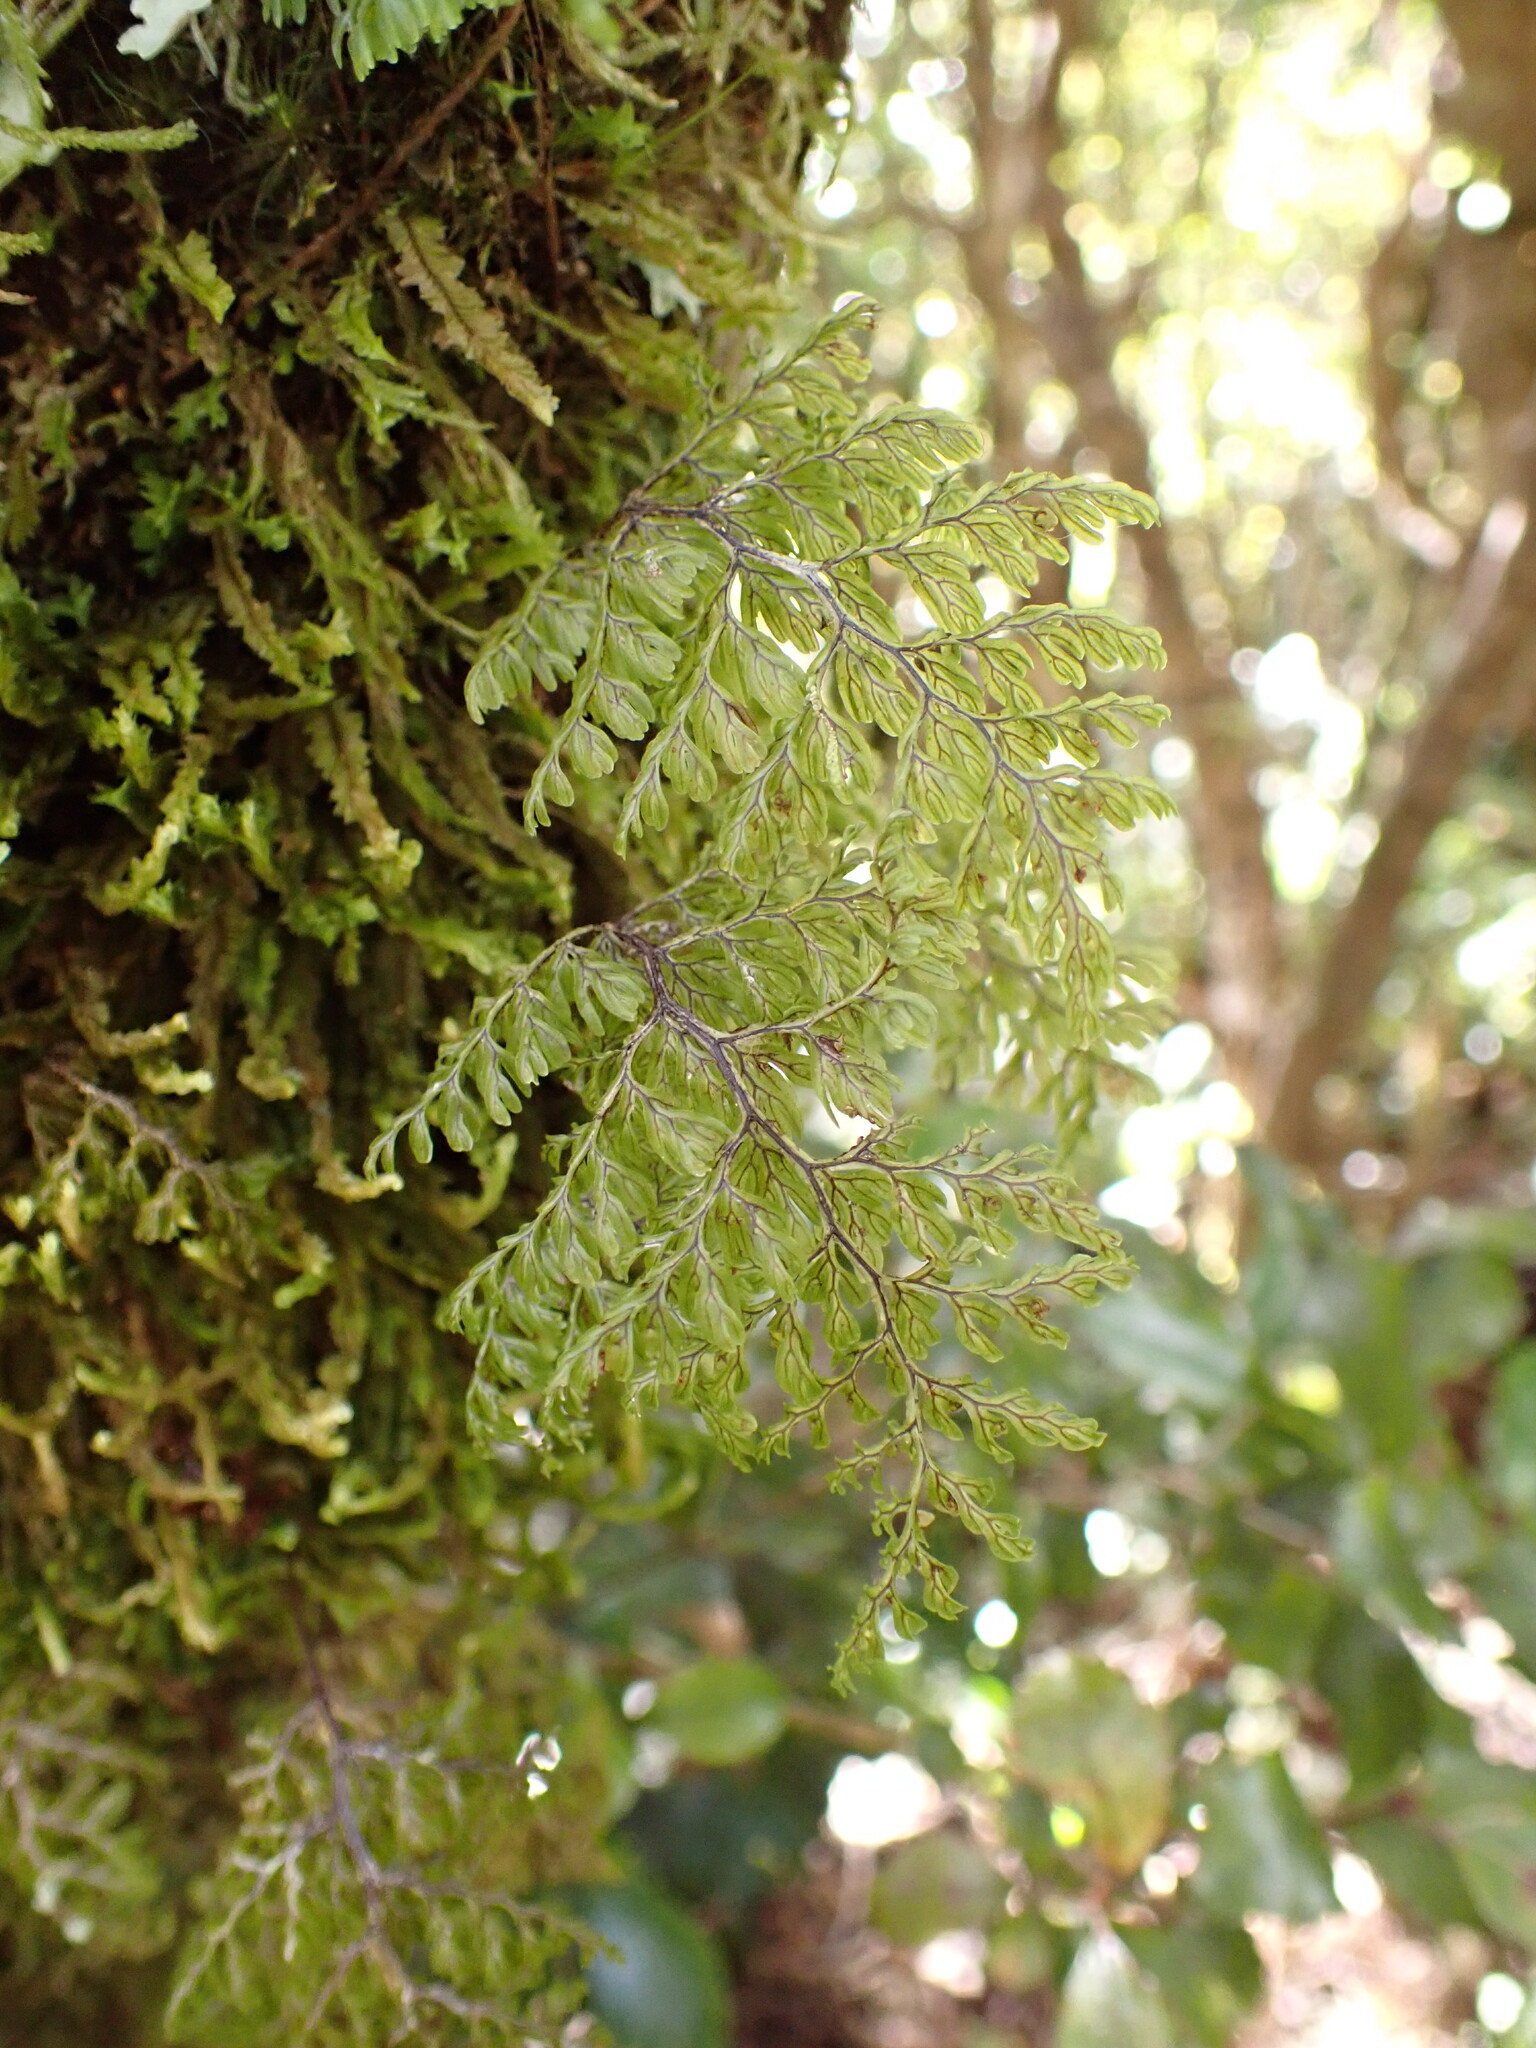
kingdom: Plantae
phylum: Tracheophyta
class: Polypodiopsida
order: Hymenophyllales
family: Hymenophyllaceae
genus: Hymenophyllum
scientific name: Hymenophyllum villosum
